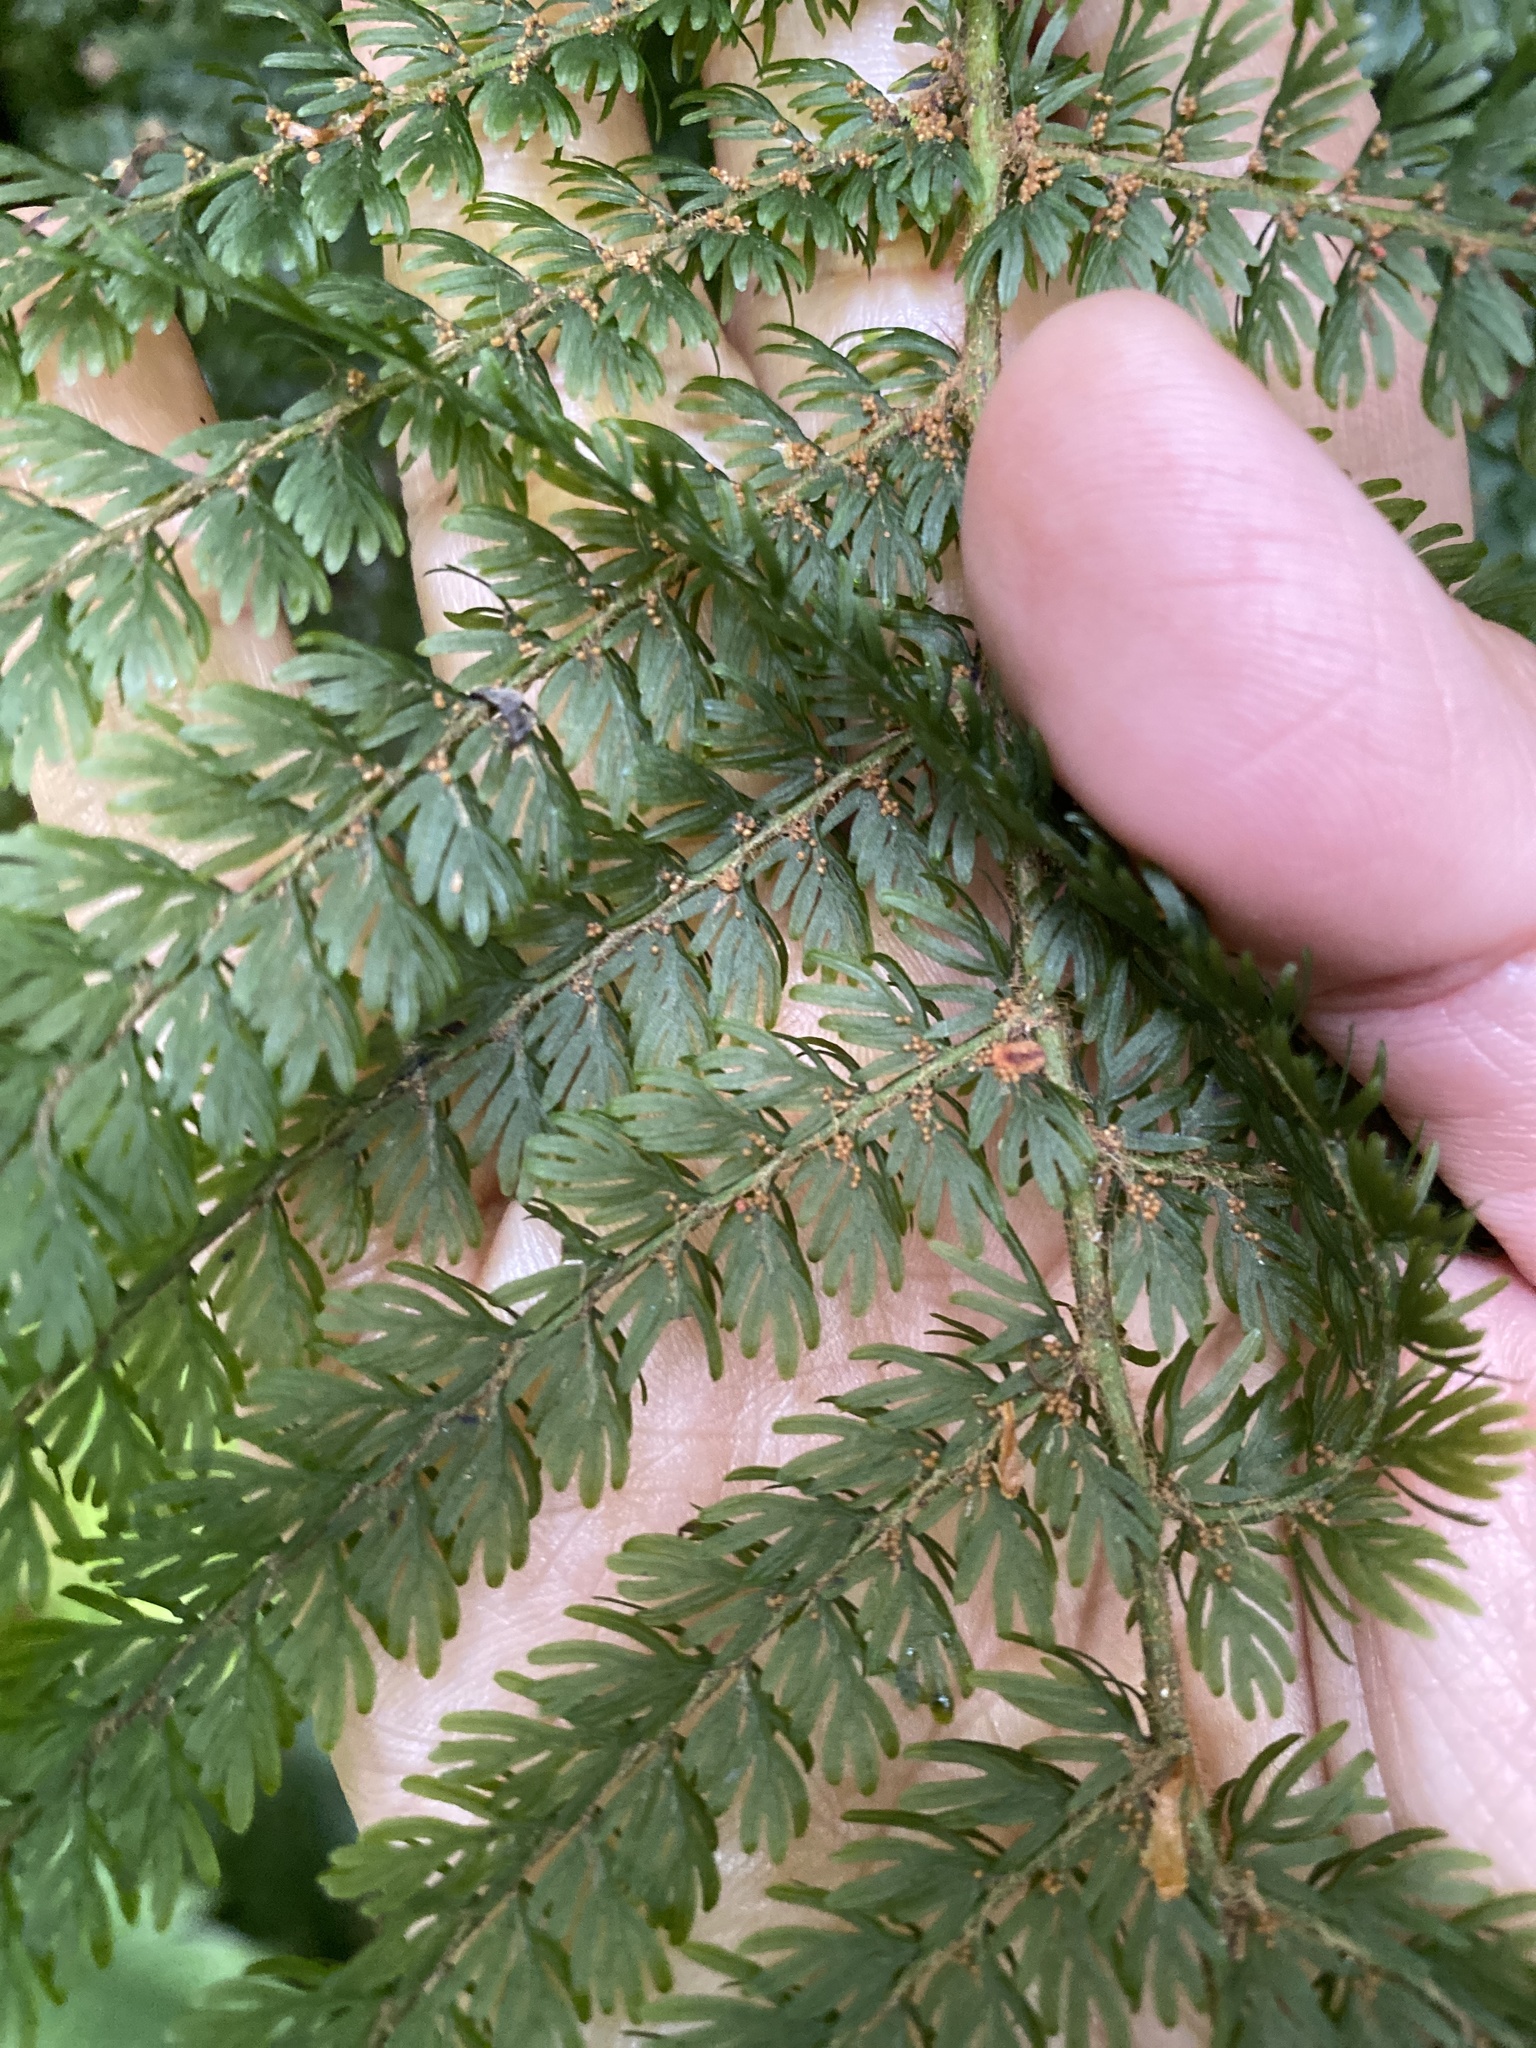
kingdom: Plantae
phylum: Tracheophyta
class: Polypodiopsida
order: Osmundales
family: Osmundaceae
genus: Leptopteris
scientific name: Leptopteris superba
